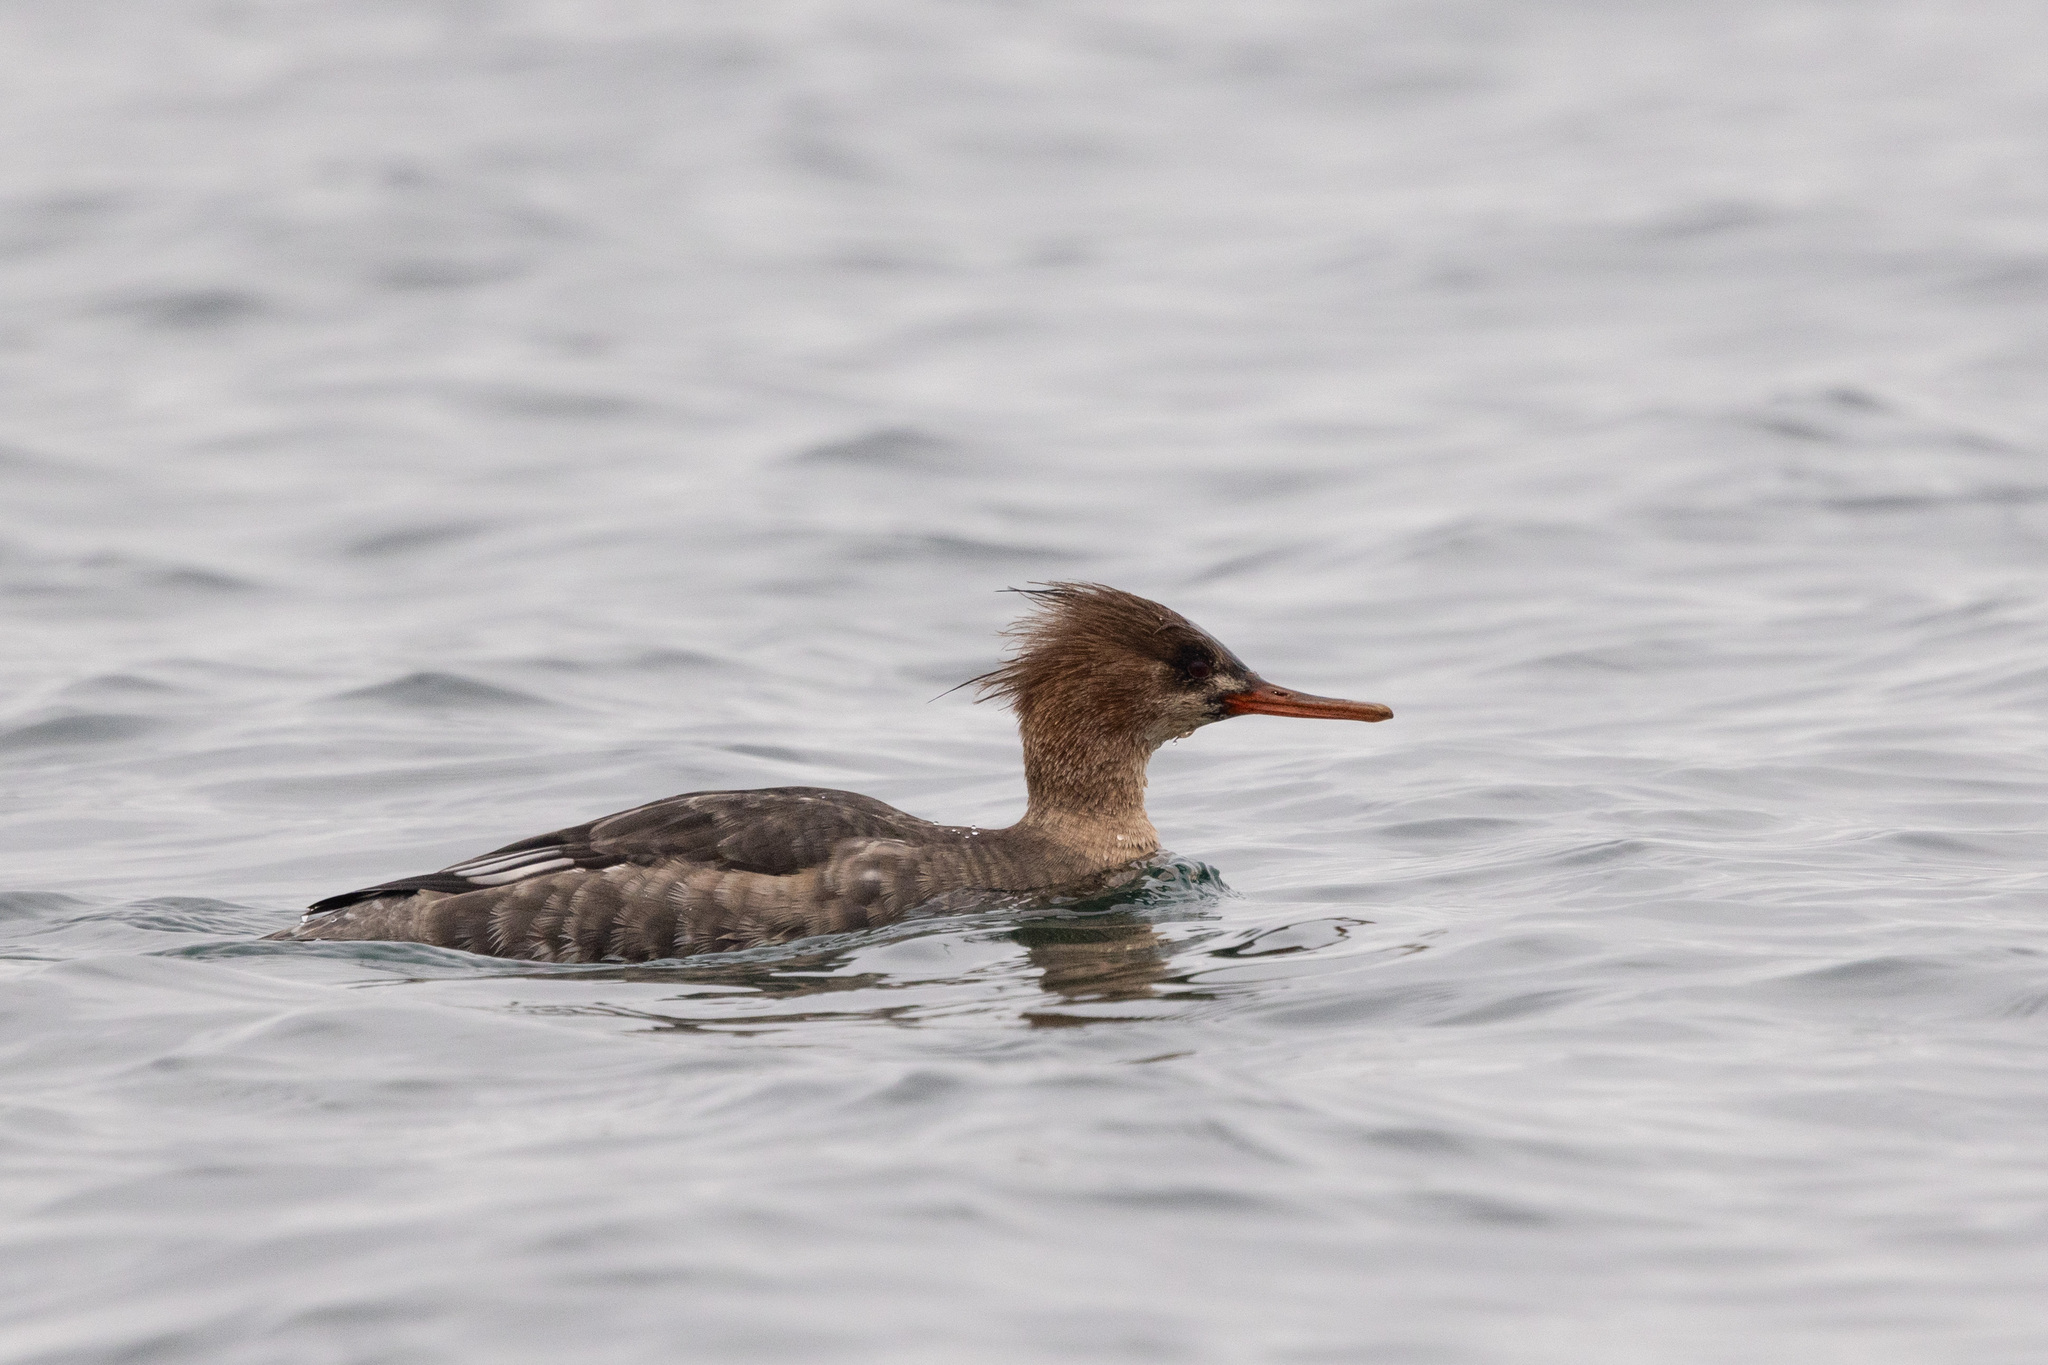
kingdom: Animalia
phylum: Chordata
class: Aves
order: Anseriformes
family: Anatidae
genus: Mergus
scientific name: Mergus serrator
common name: Red-breasted merganser
